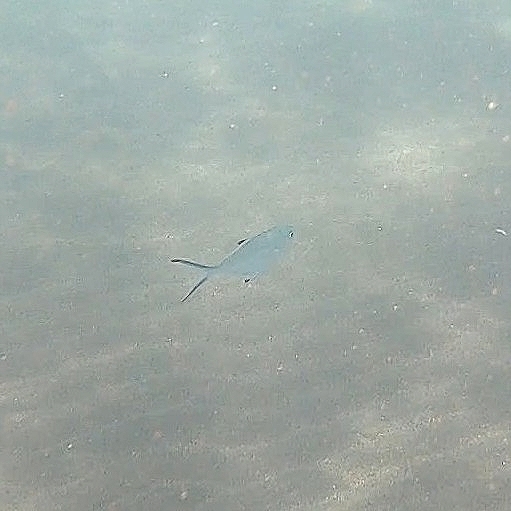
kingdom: Animalia
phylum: Chordata
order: Perciformes
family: Carangidae
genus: Trachinotus
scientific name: Trachinotus ovatus
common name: Pompano
